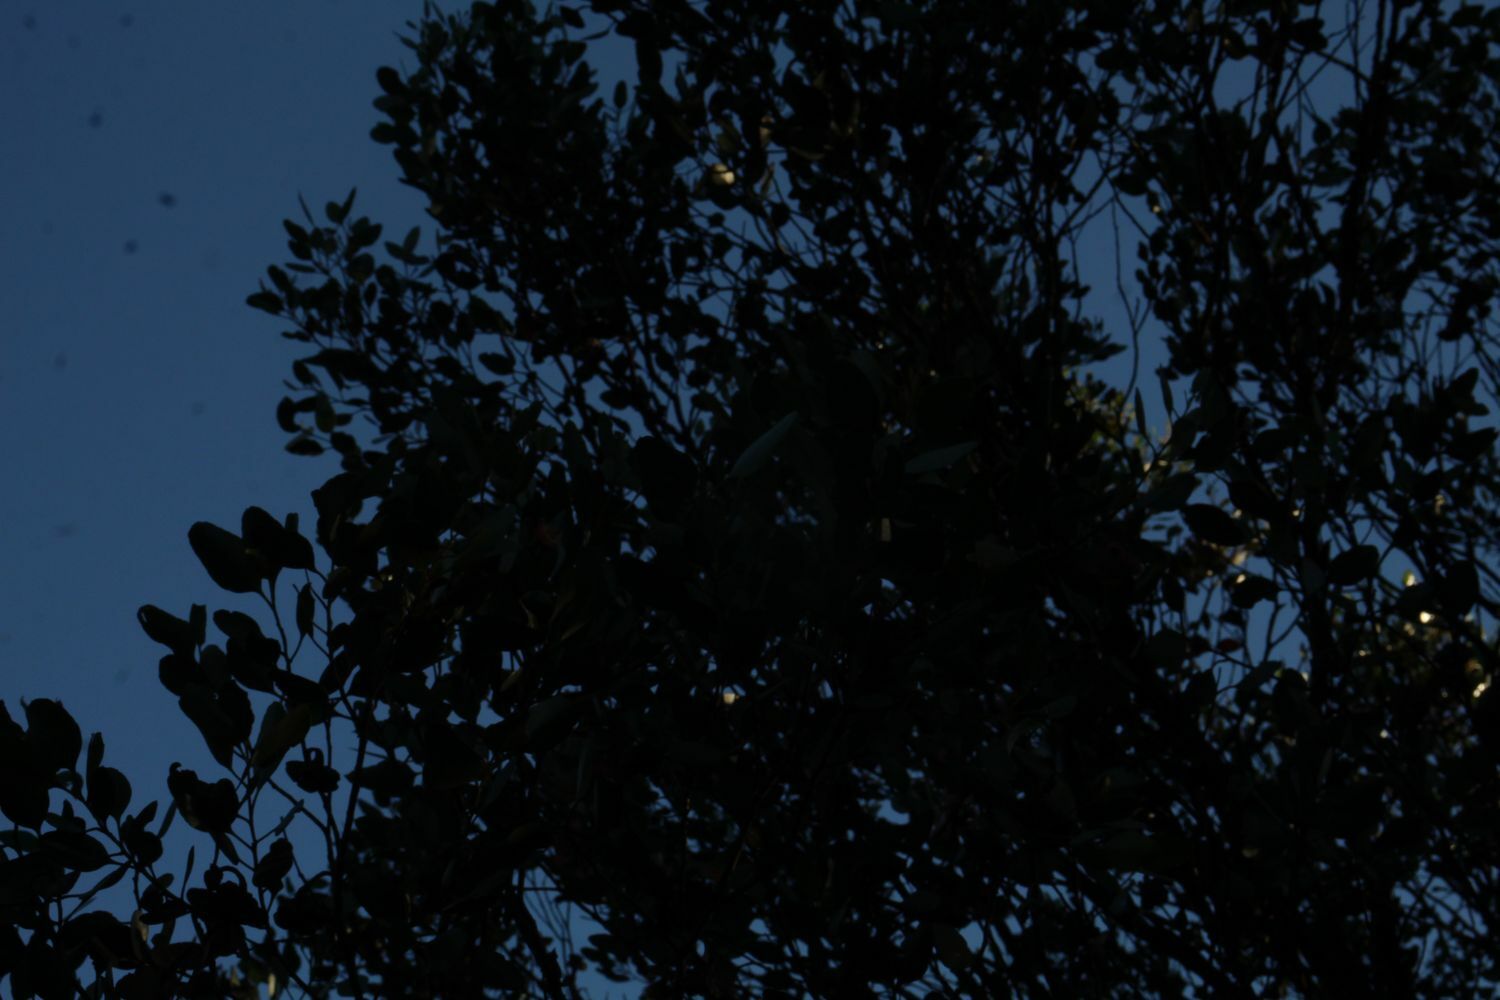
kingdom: Plantae
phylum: Tracheophyta
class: Magnoliopsida
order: Myrtales
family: Myrtaceae
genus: Eucalyptus
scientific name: Eucalyptus vesiculosa
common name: Corackerup marlock
